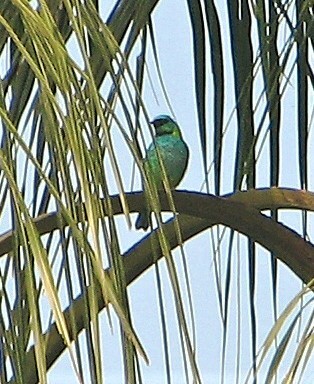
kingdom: Animalia
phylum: Chordata
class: Aves
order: Passeriformes
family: Thraupidae
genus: Tangara
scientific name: Tangara seledon
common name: Green-headed tanager
